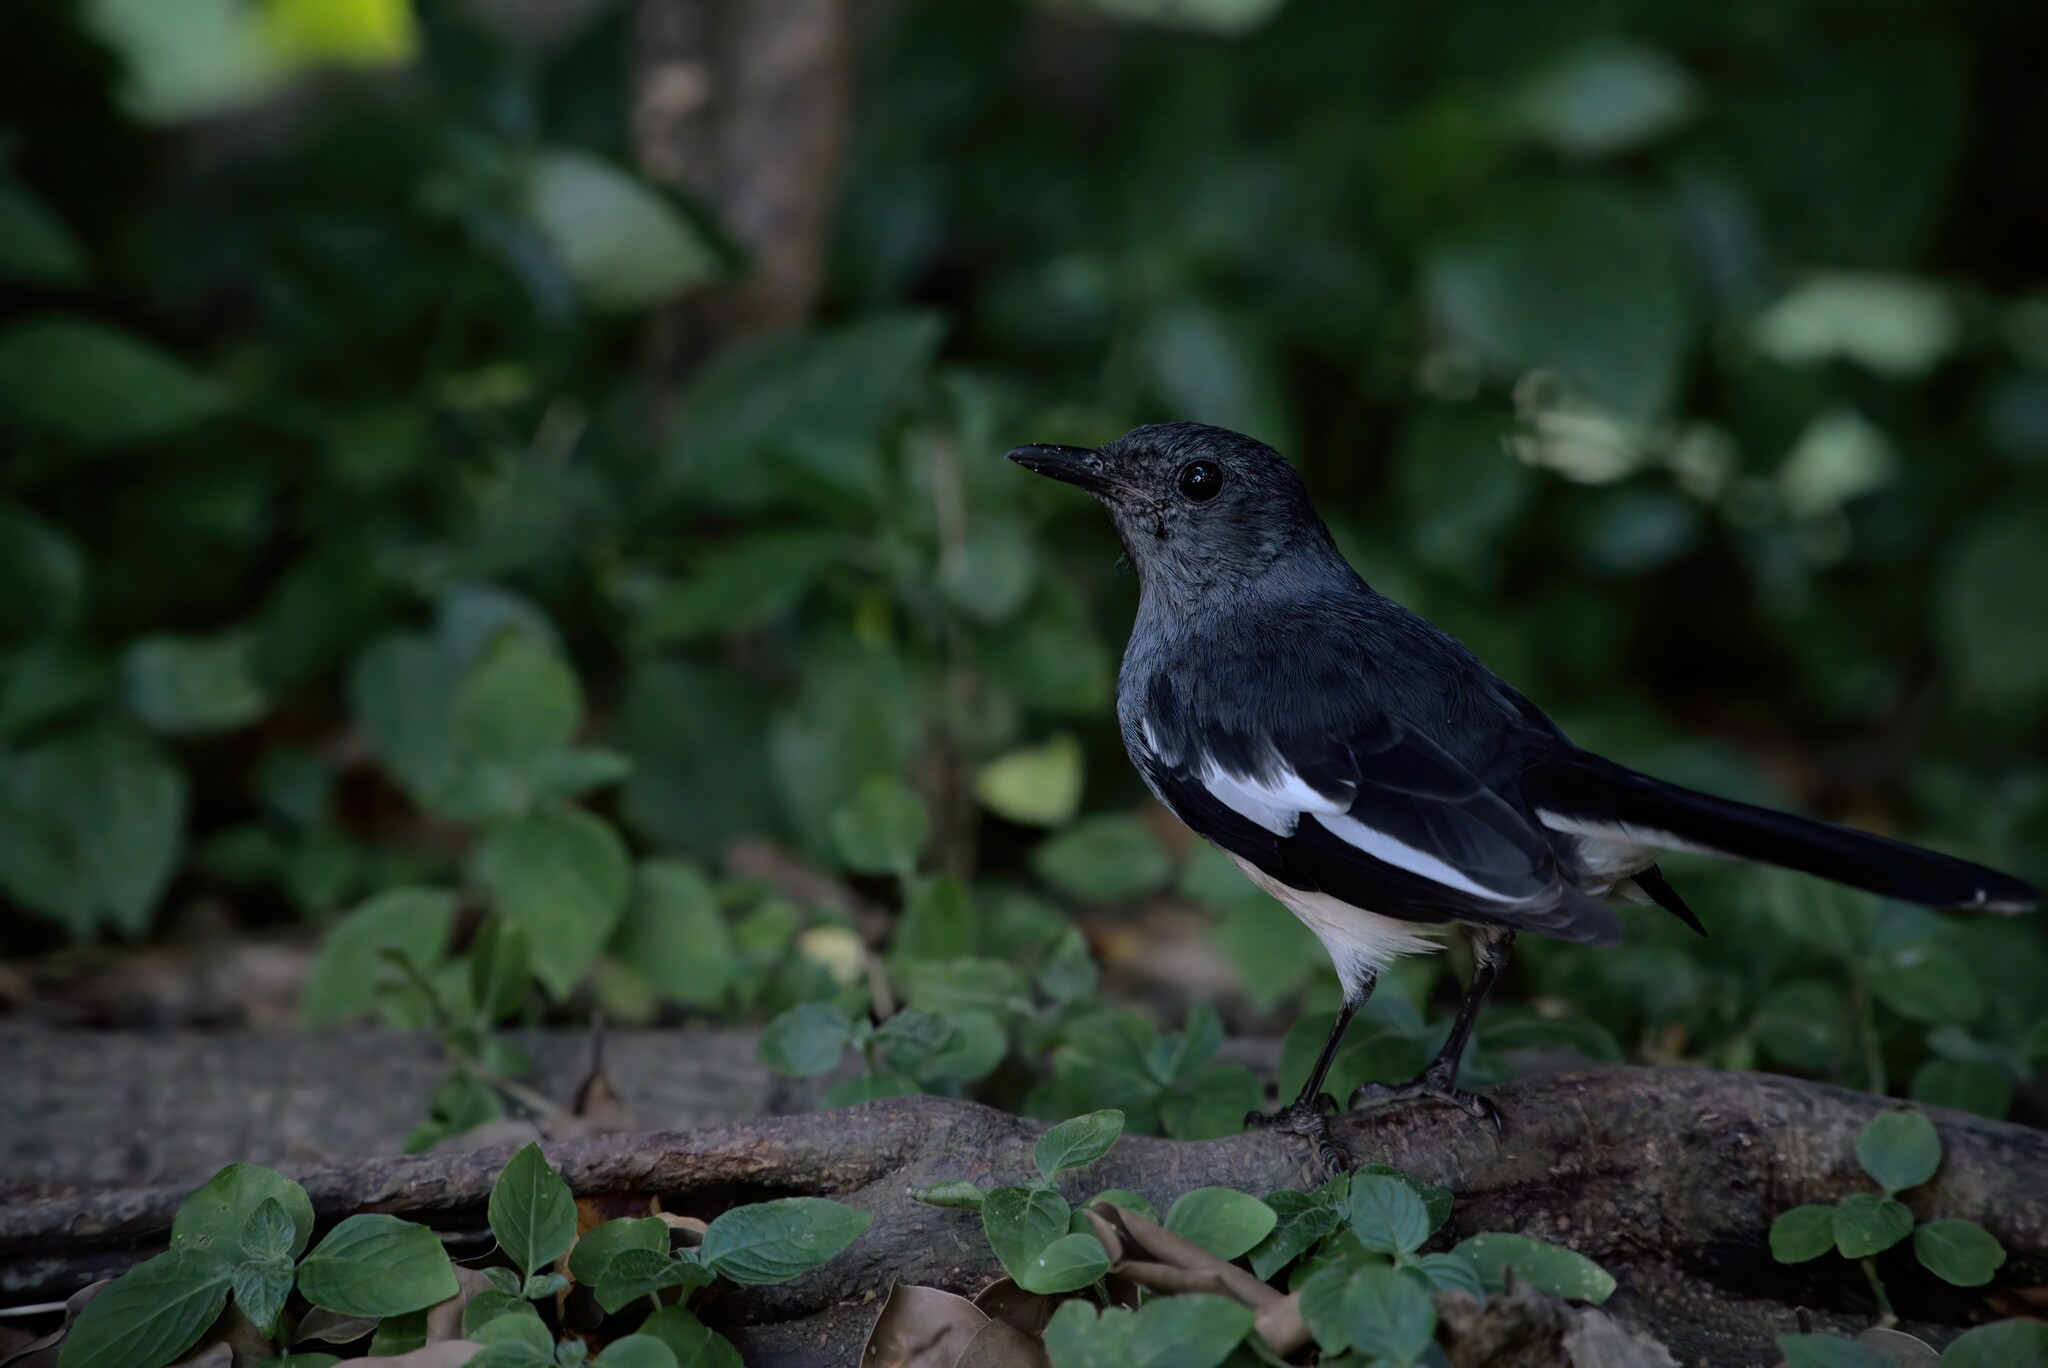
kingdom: Animalia
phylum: Chordata
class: Aves
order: Passeriformes
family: Muscicapidae
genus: Copsychus
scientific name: Copsychus saularis
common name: Oriental magpie-robin
